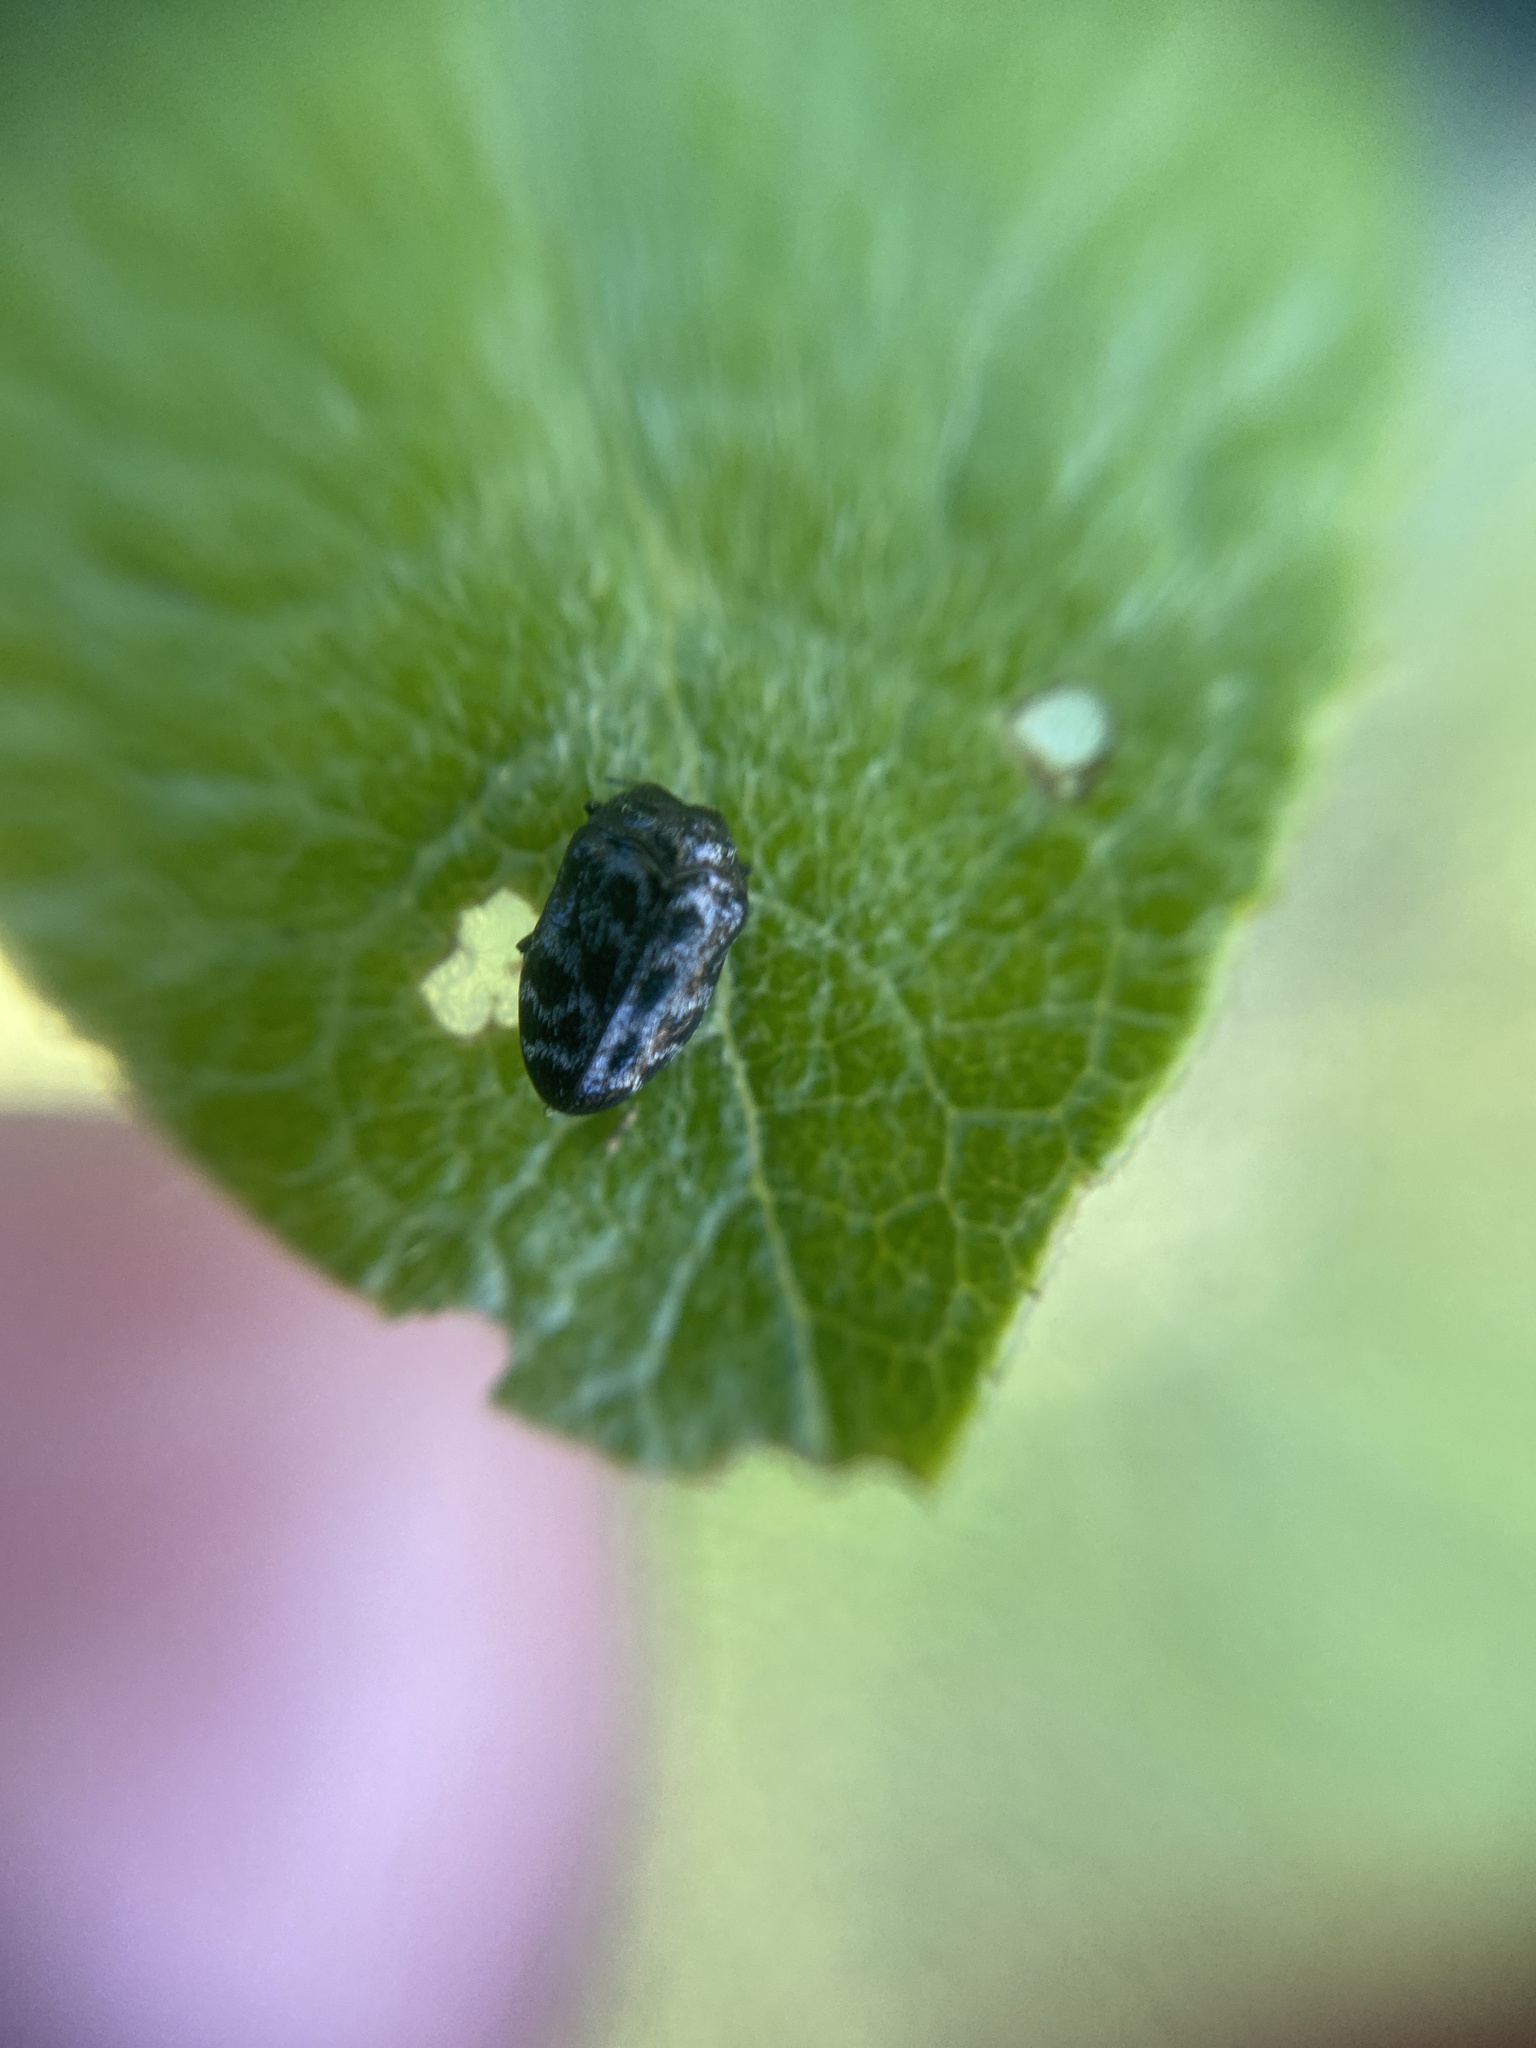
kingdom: Animalia
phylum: Arthropoda
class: Insecta
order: Coleoptera
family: Buprestidae
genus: Trachys
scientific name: Trachys minutus
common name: Metallic wood-boring beetle
